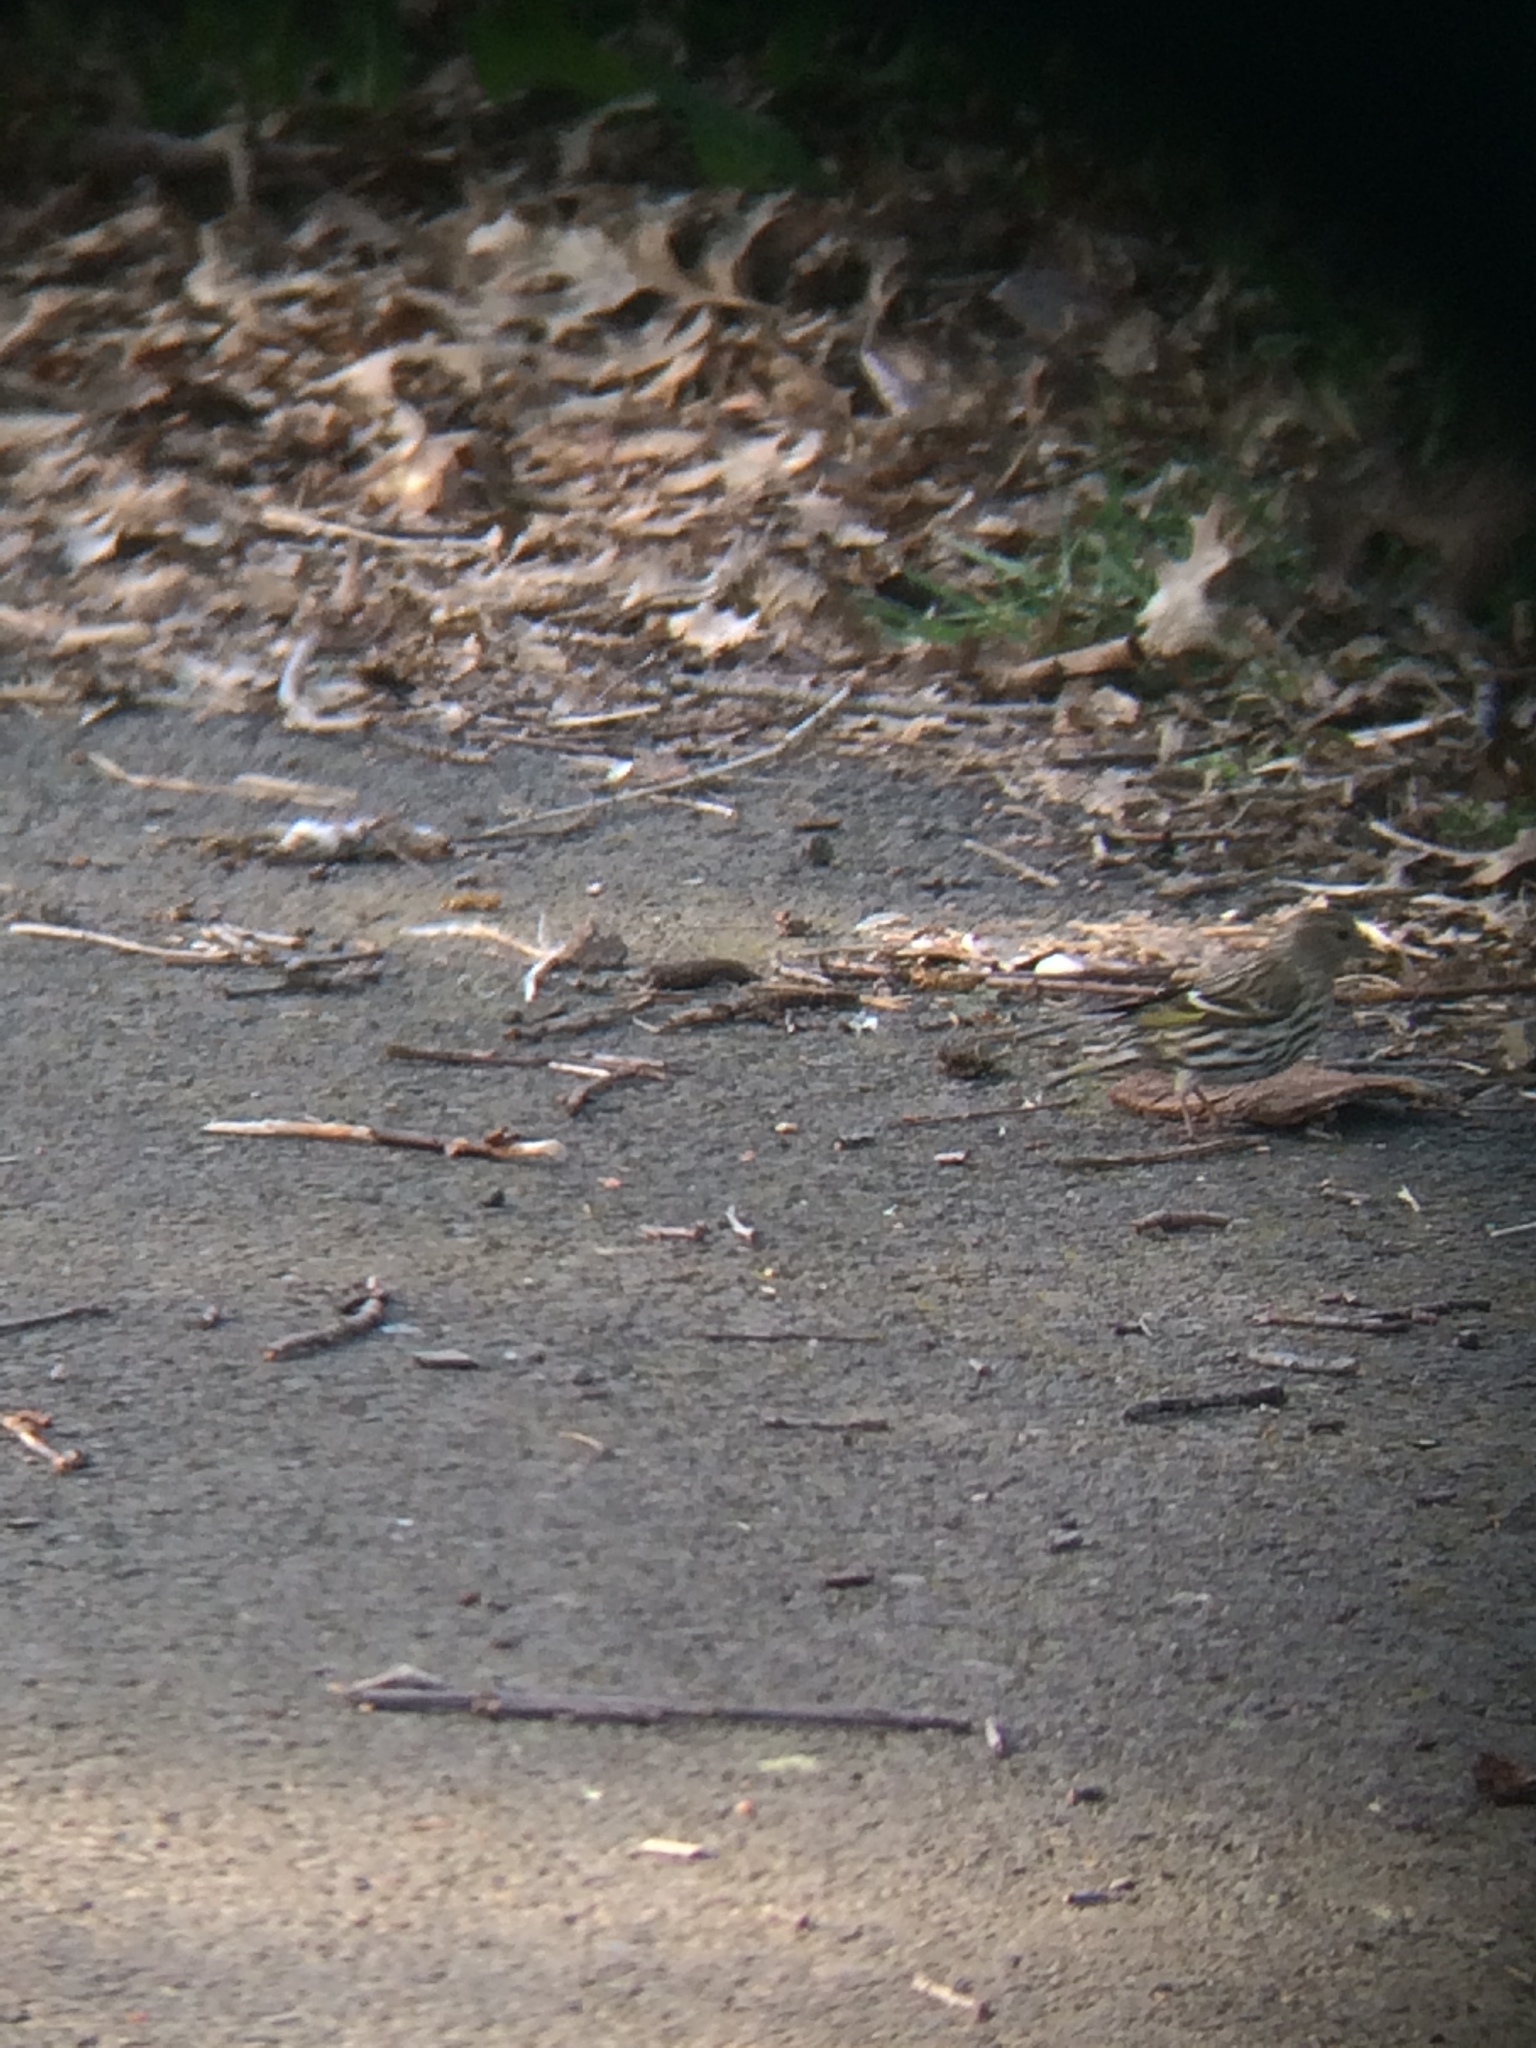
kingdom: Animalia
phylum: Chordata
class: Aves
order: Passeriformes
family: Fringillidae
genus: Spinus
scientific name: Spinus pinus
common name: Pine siskin
